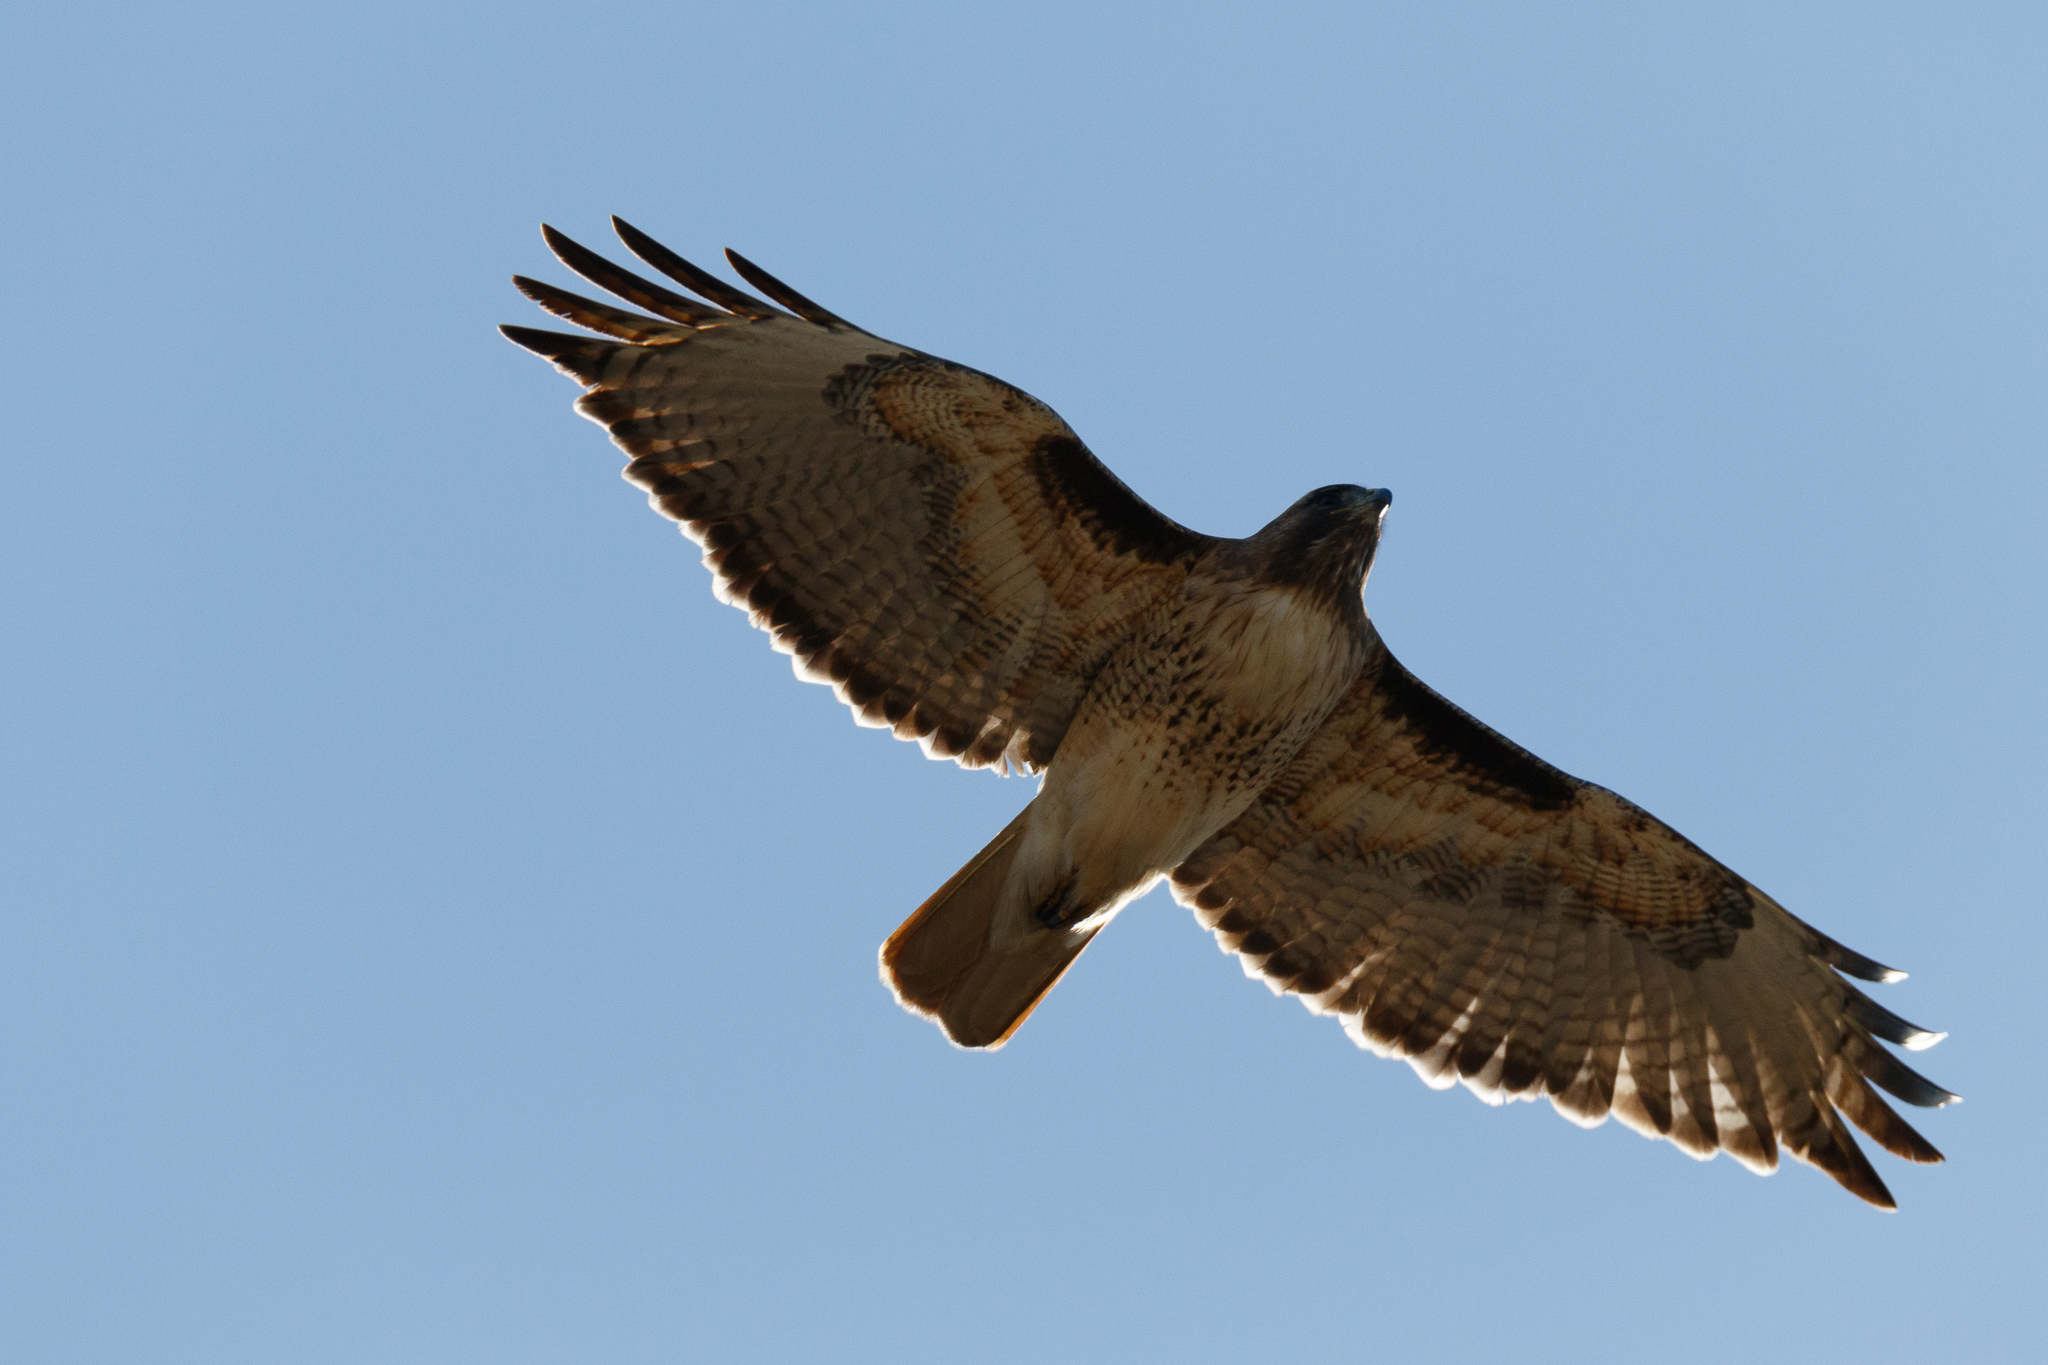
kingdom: Animalia
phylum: Chordata
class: Aves
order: Accipitriformes
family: Accipitridae
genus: Buteo
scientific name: Buteo jamaicensis
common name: Red-tailed hawk
